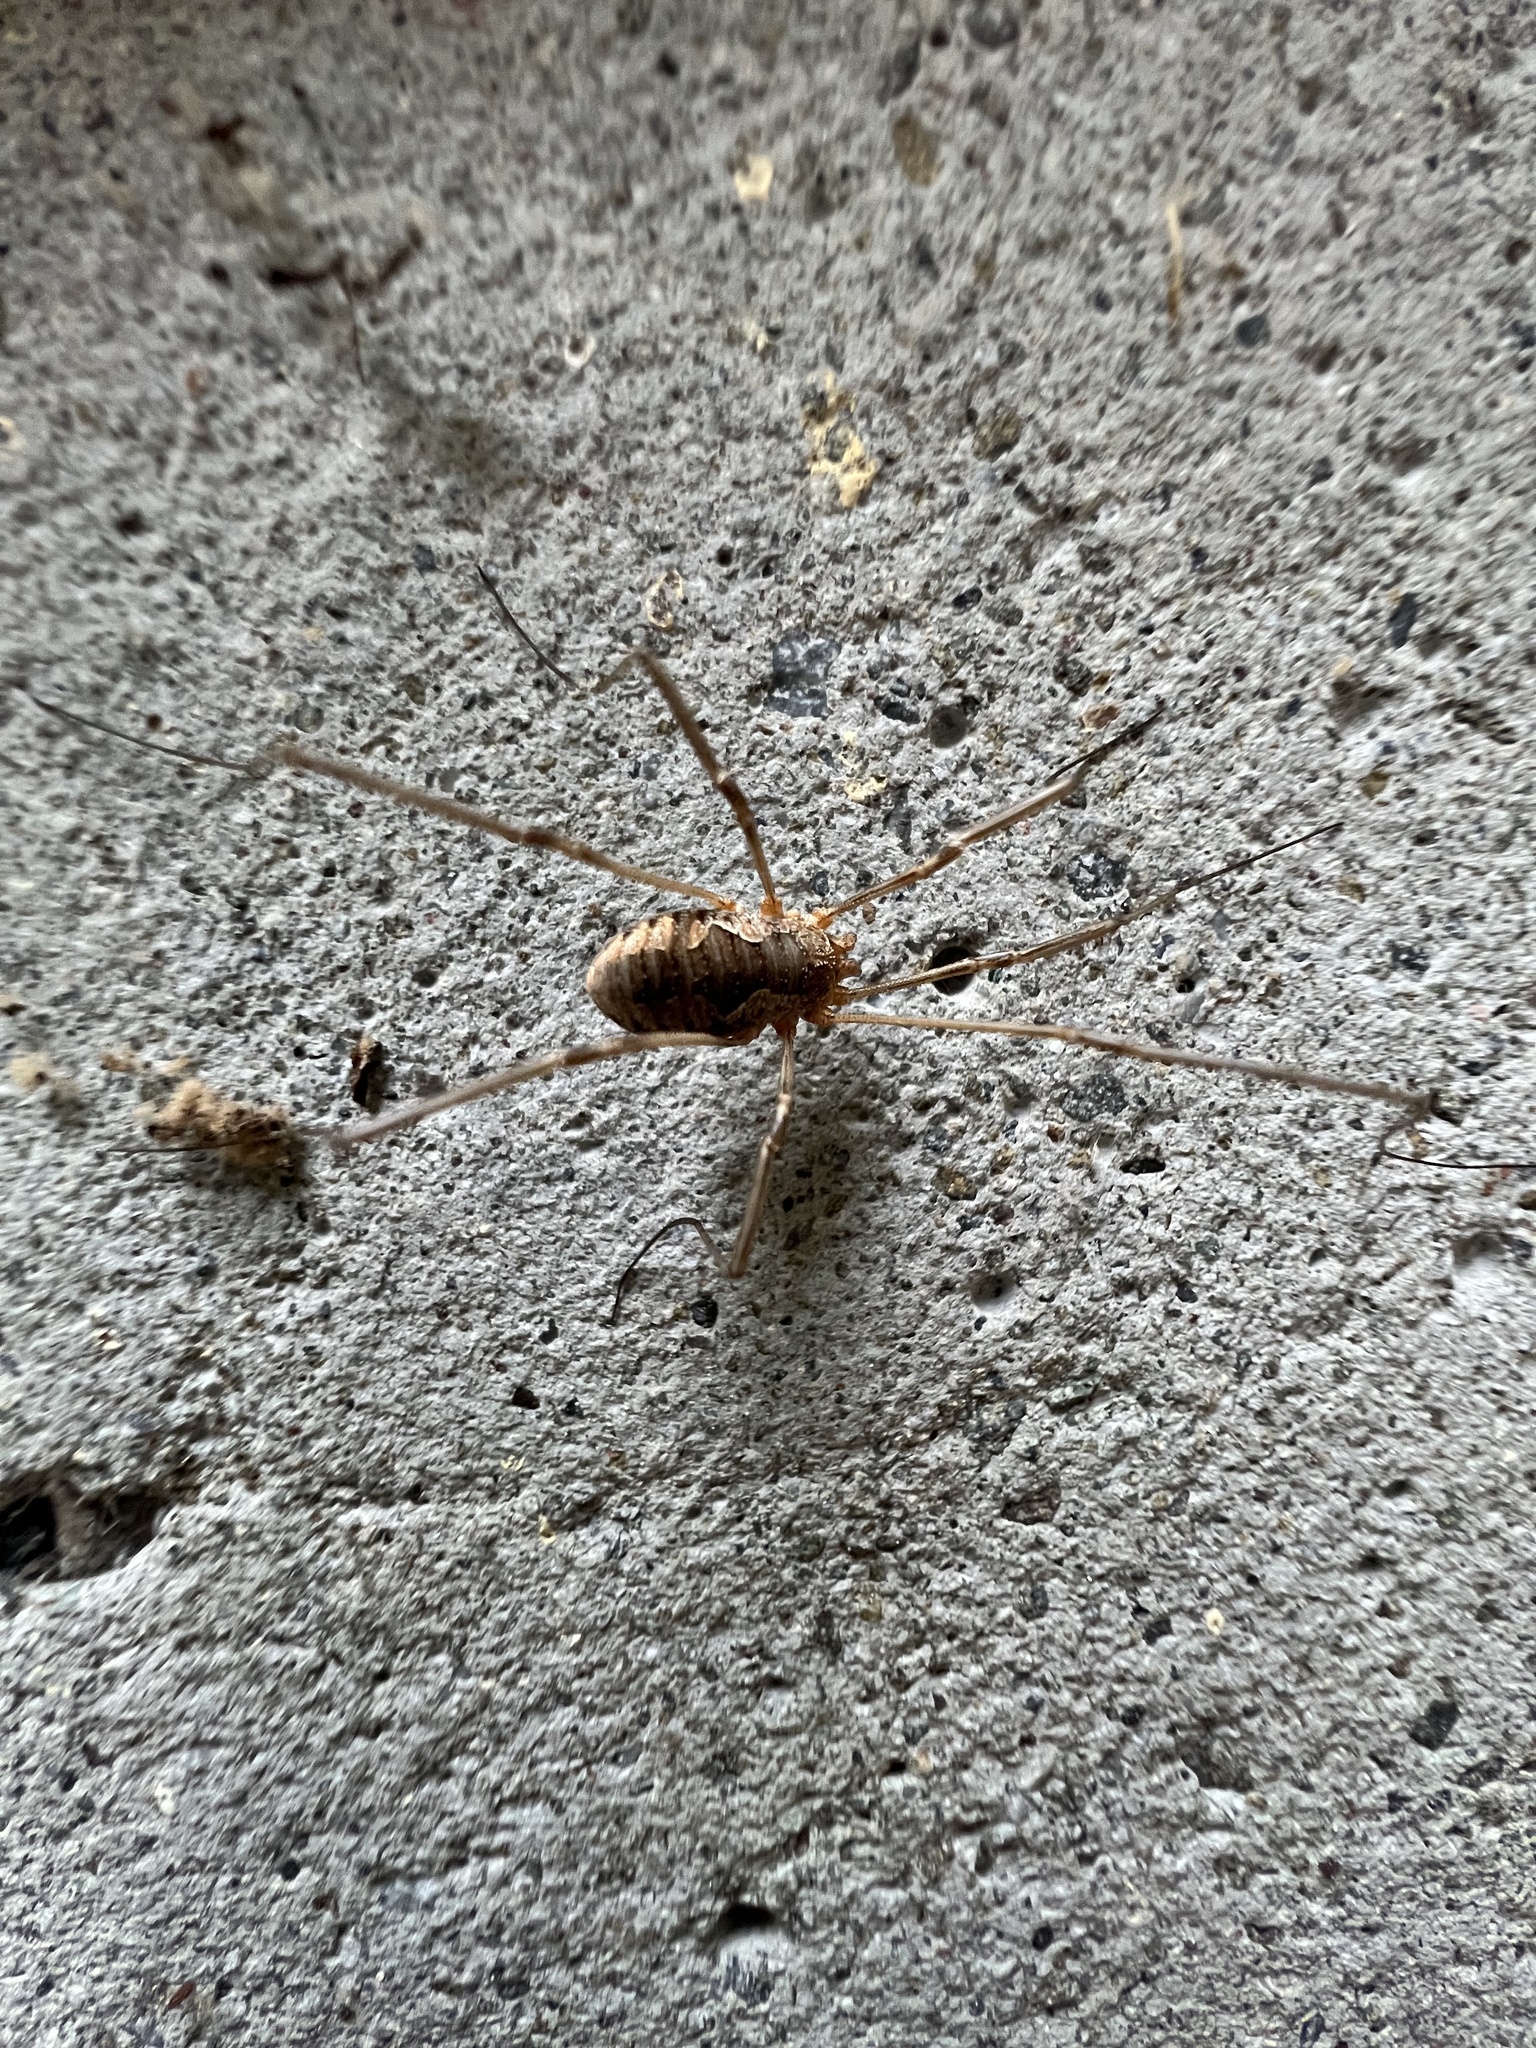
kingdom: Animalia
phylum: Arthropoda
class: Arachnida
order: Opiliones
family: Phalangiidae
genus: Phalangium
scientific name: Phalangium opilio
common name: Daddy longleg
